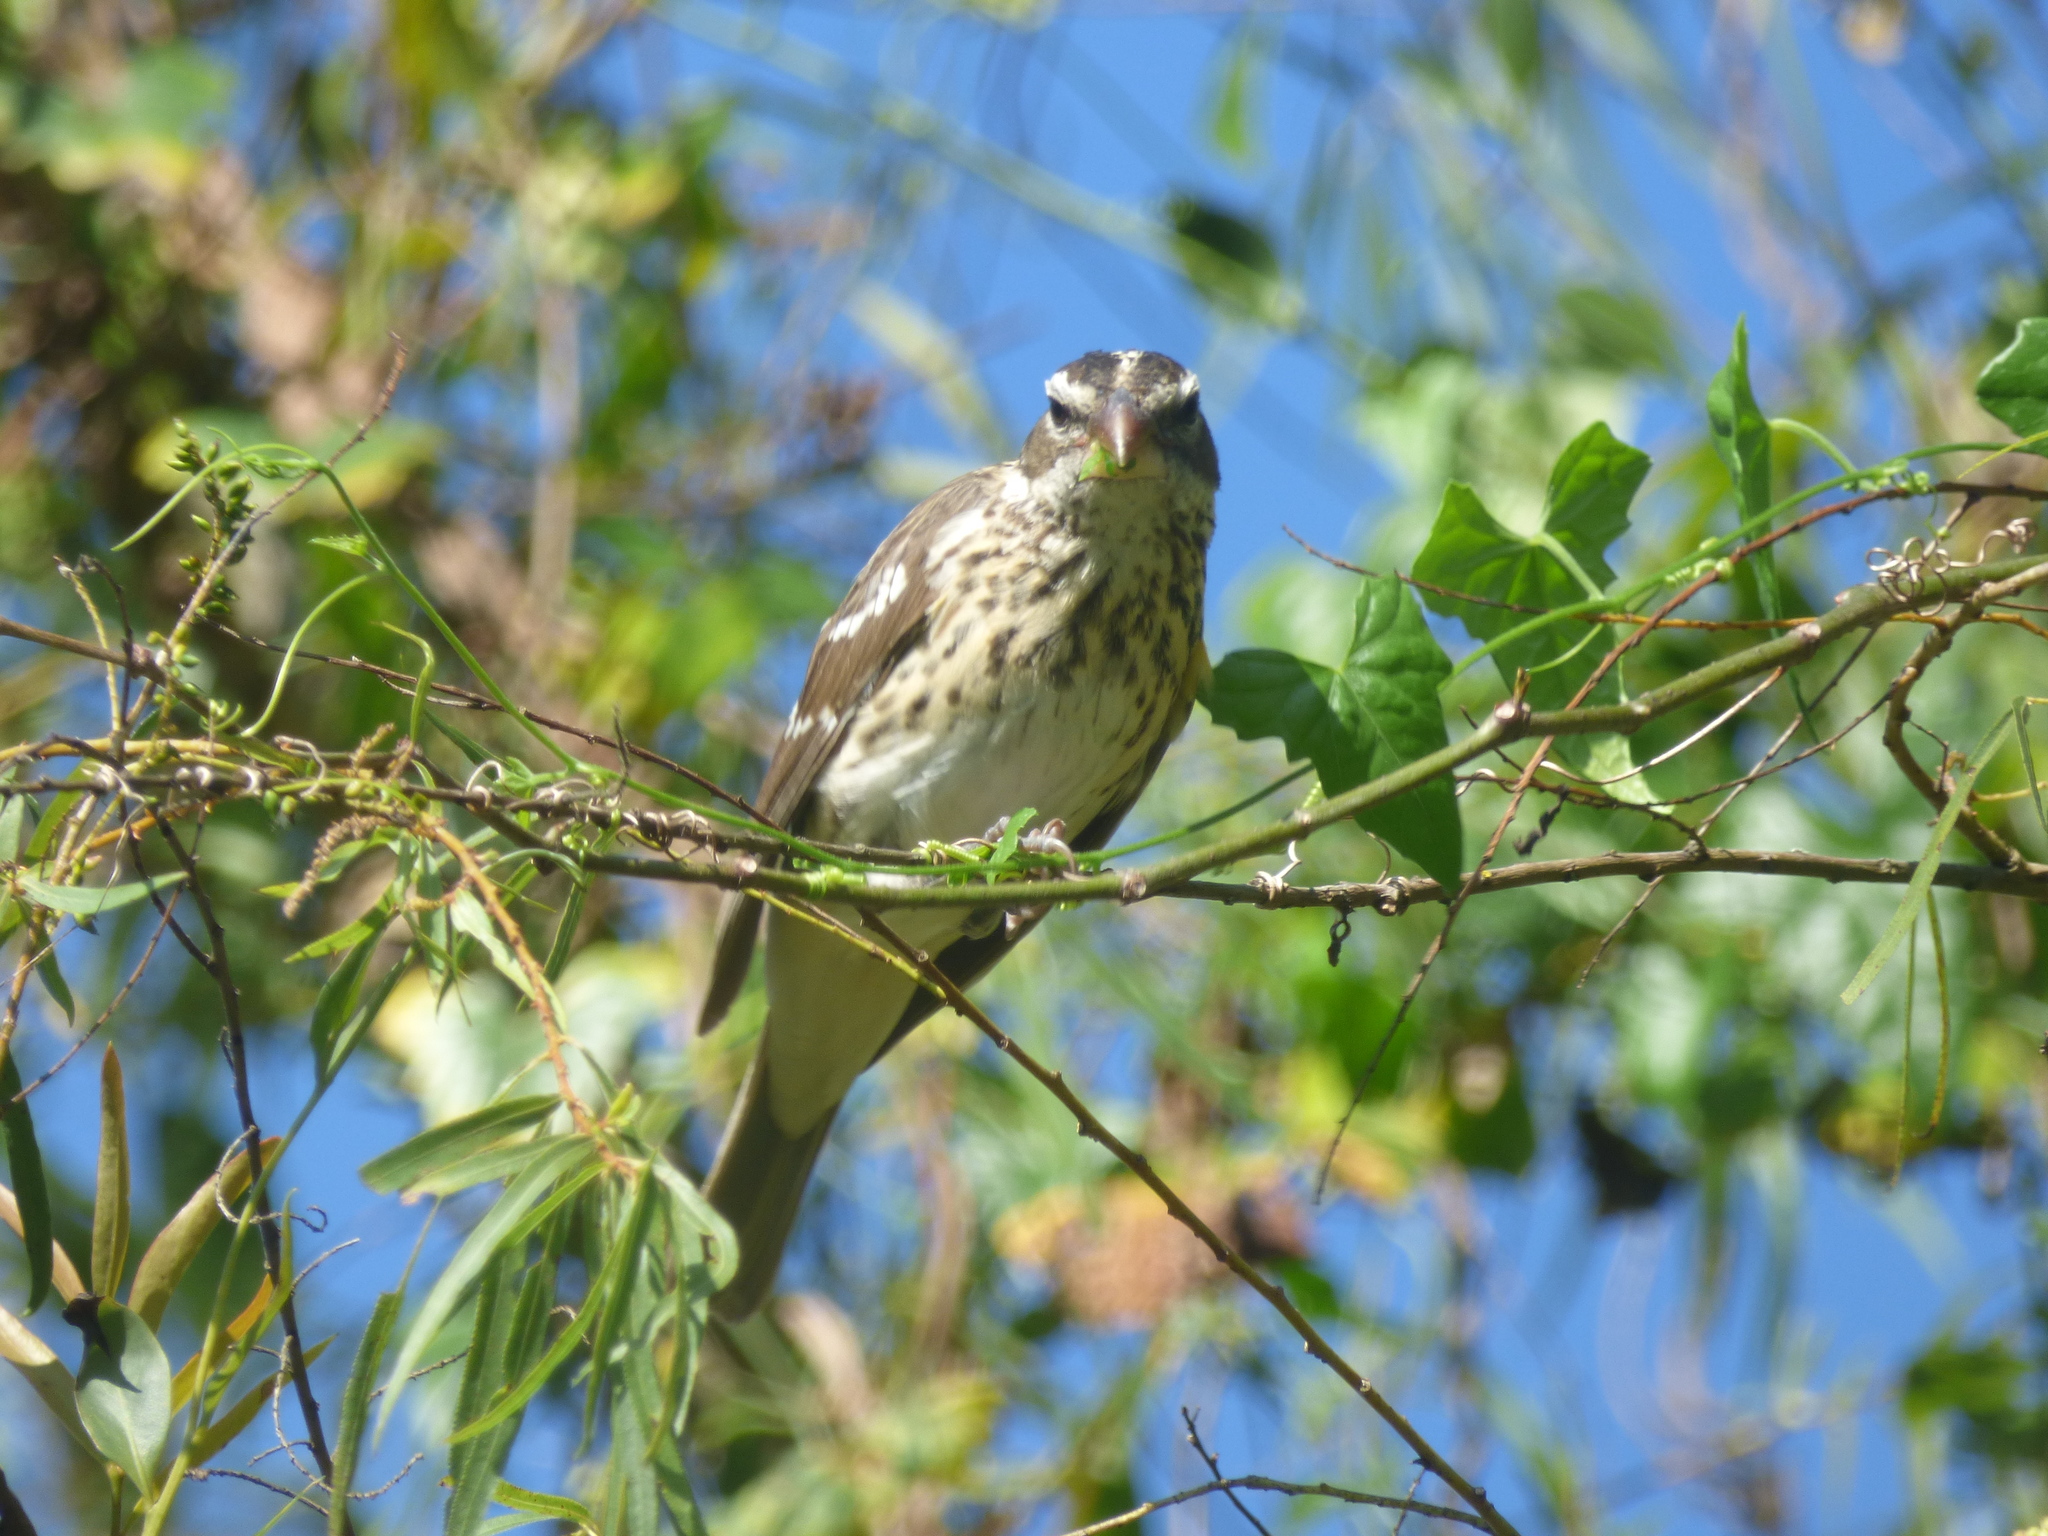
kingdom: Animalia
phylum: Chordata
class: Aves
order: Passeriformes
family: Cardinalidae
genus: Pheucticus
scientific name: Pheucticus ludovicianus
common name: Rose-breasted grosbeak
